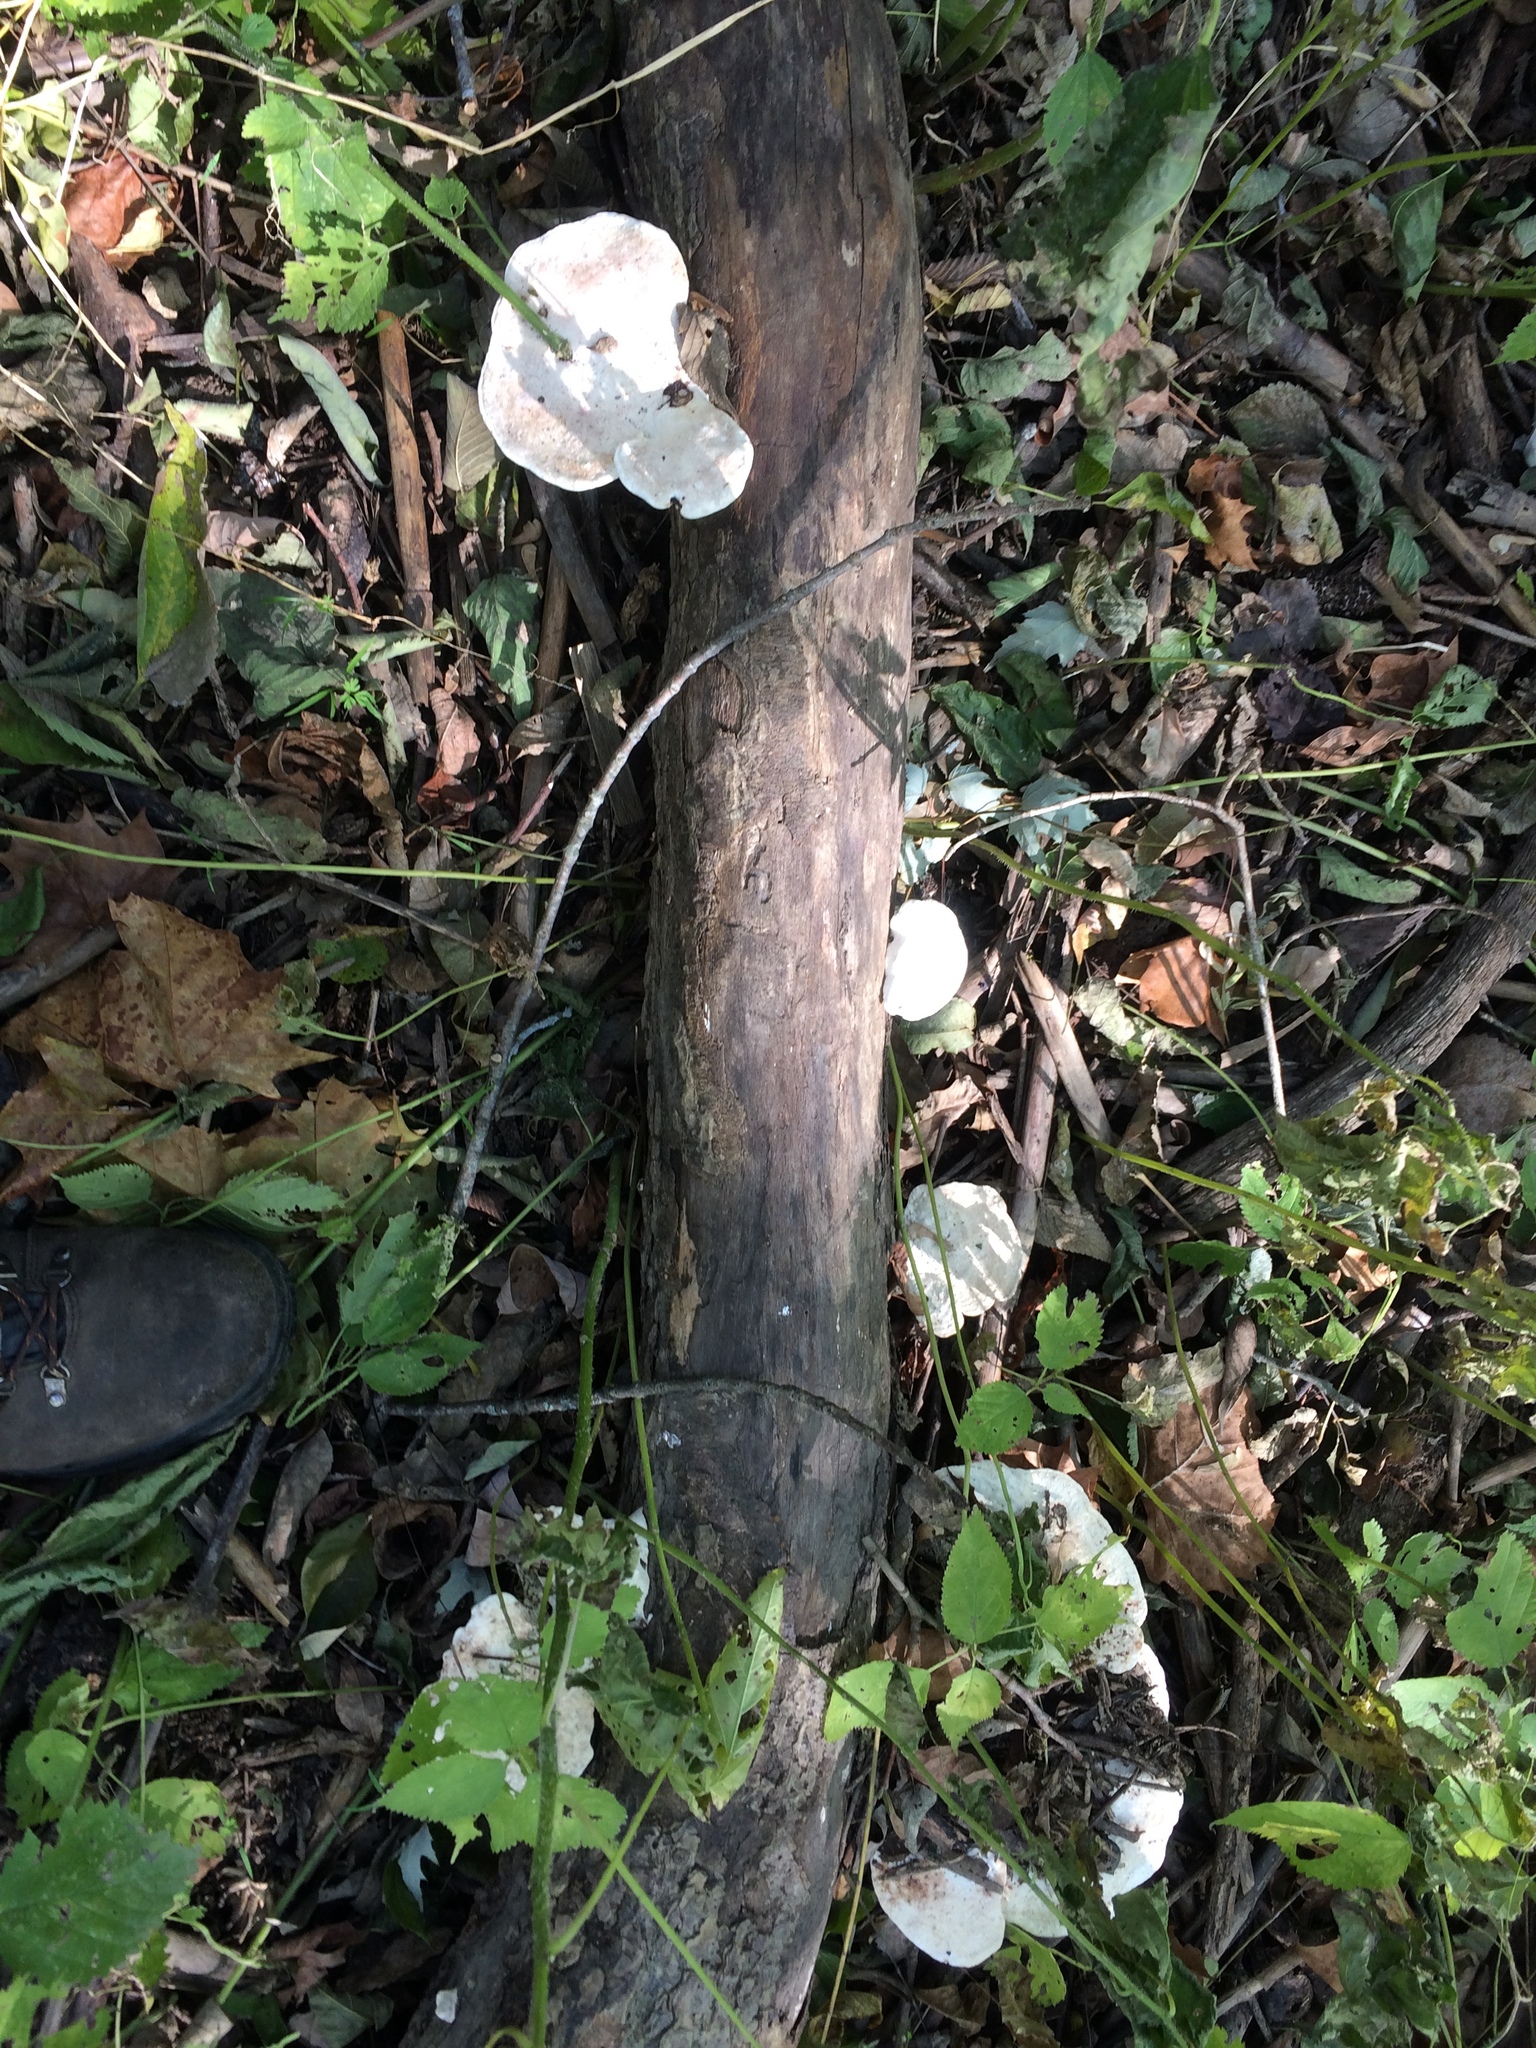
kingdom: Fungi
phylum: Basidiomycota
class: Agaricomycetes
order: Polyporales
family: Polyporaceae
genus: Trametes
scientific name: Trametes
